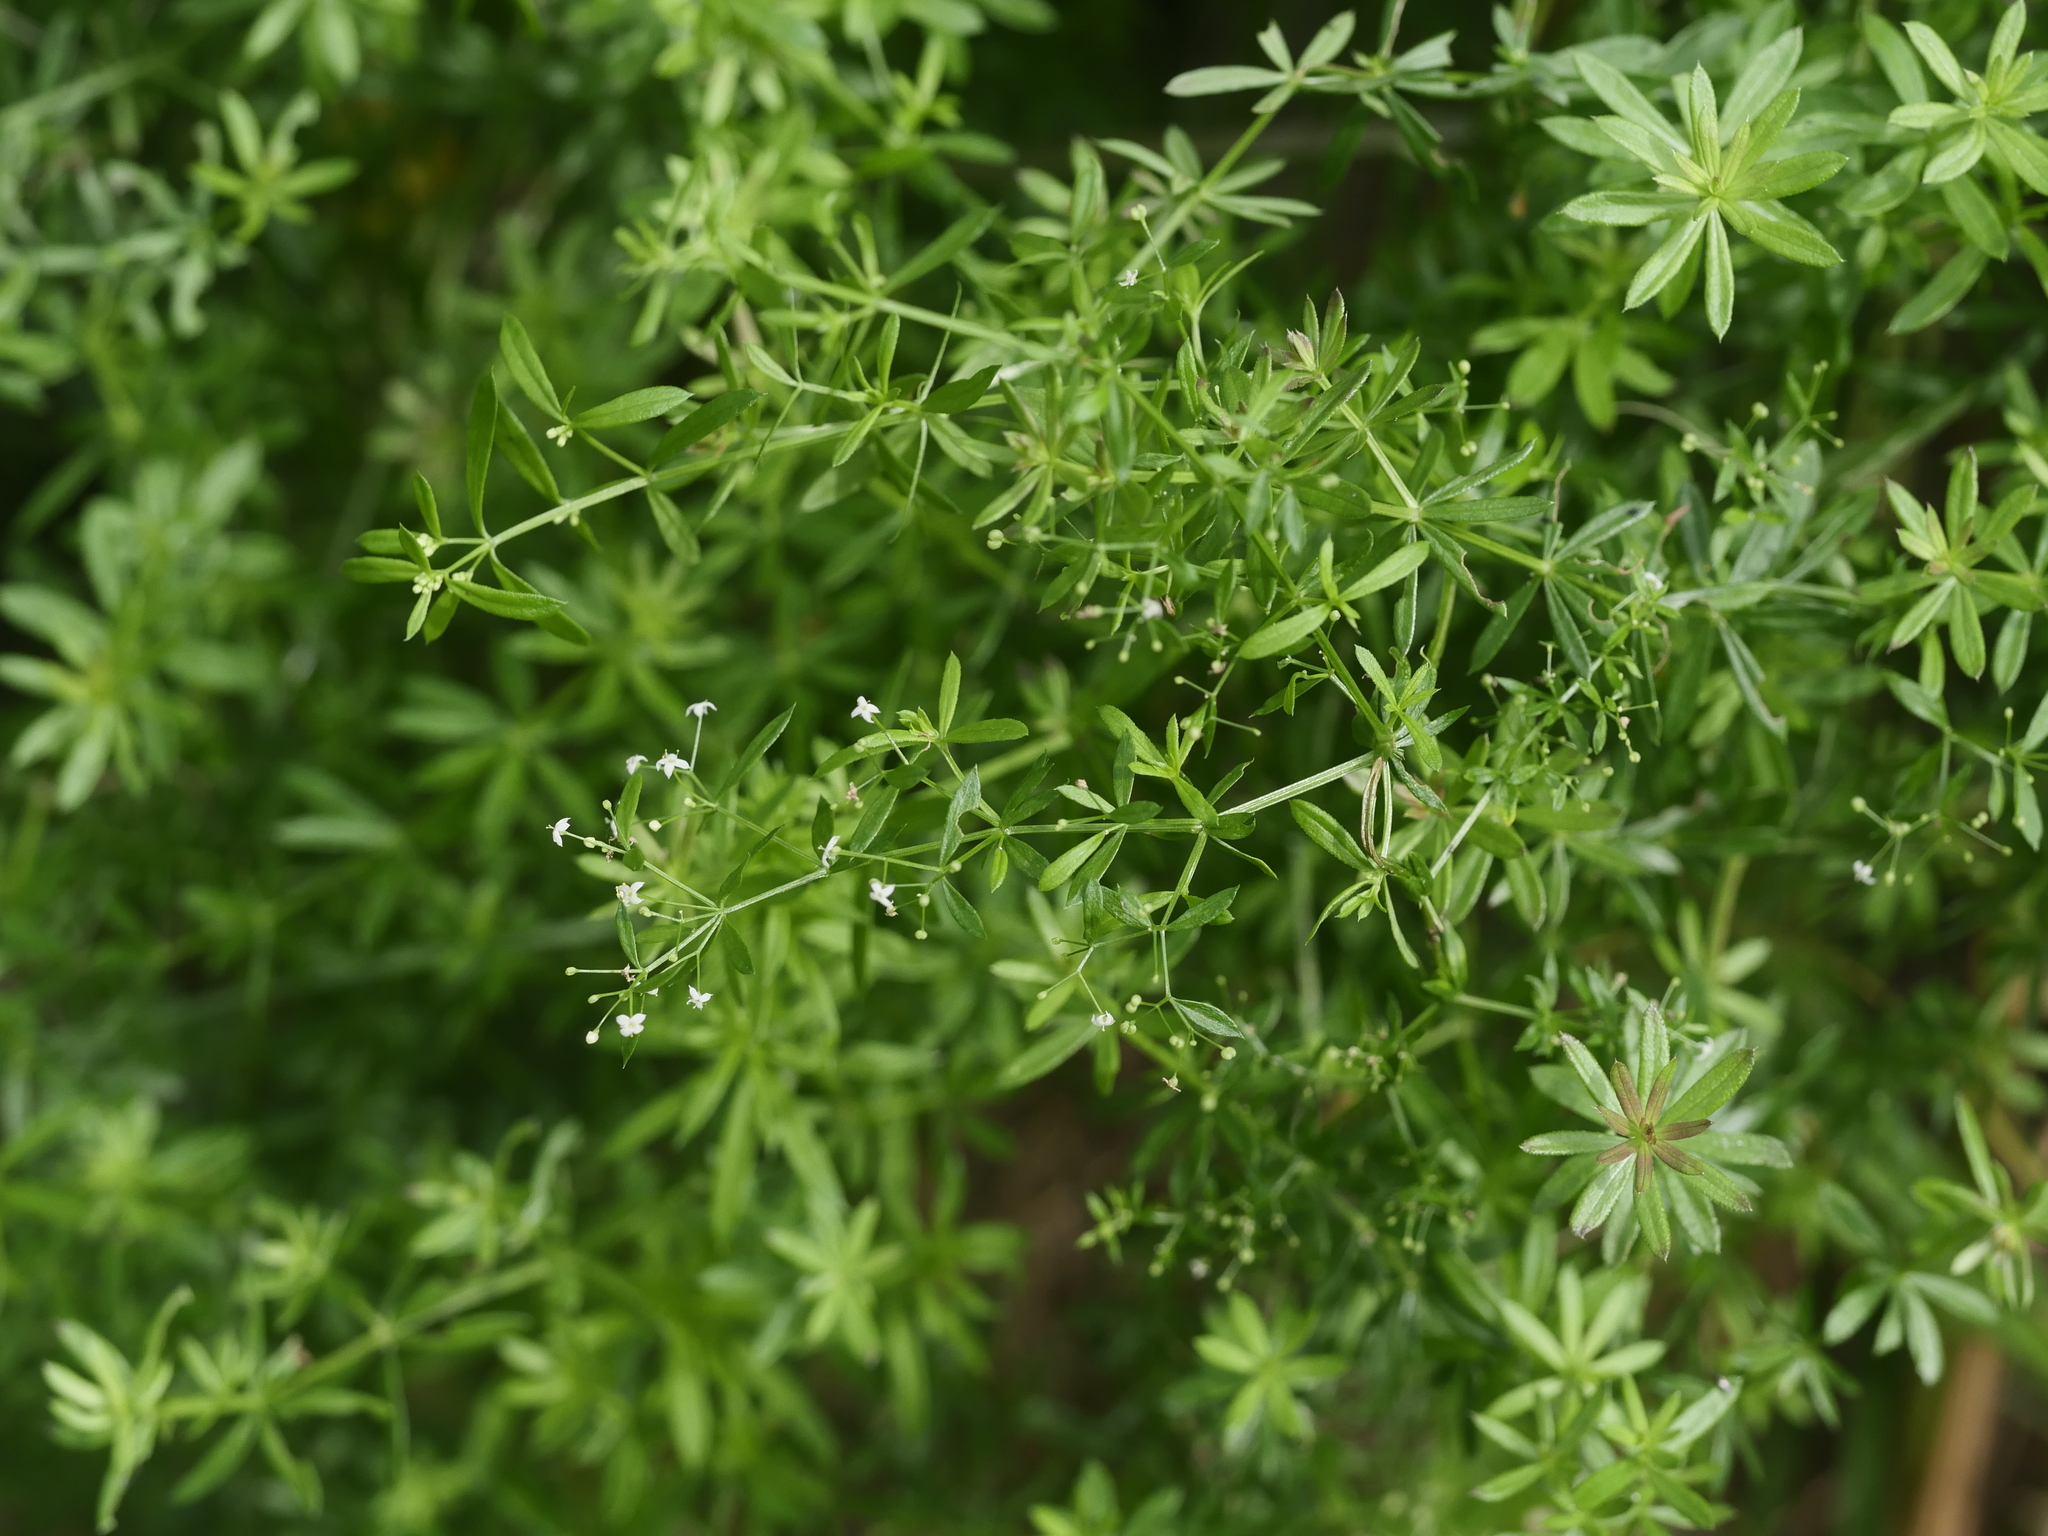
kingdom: Plantae
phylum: Tracheophyta
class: Magnoliopsida
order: Gentianales
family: Rubiaceae
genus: Galium
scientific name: Galium mollugo
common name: Hedge bedstraw
